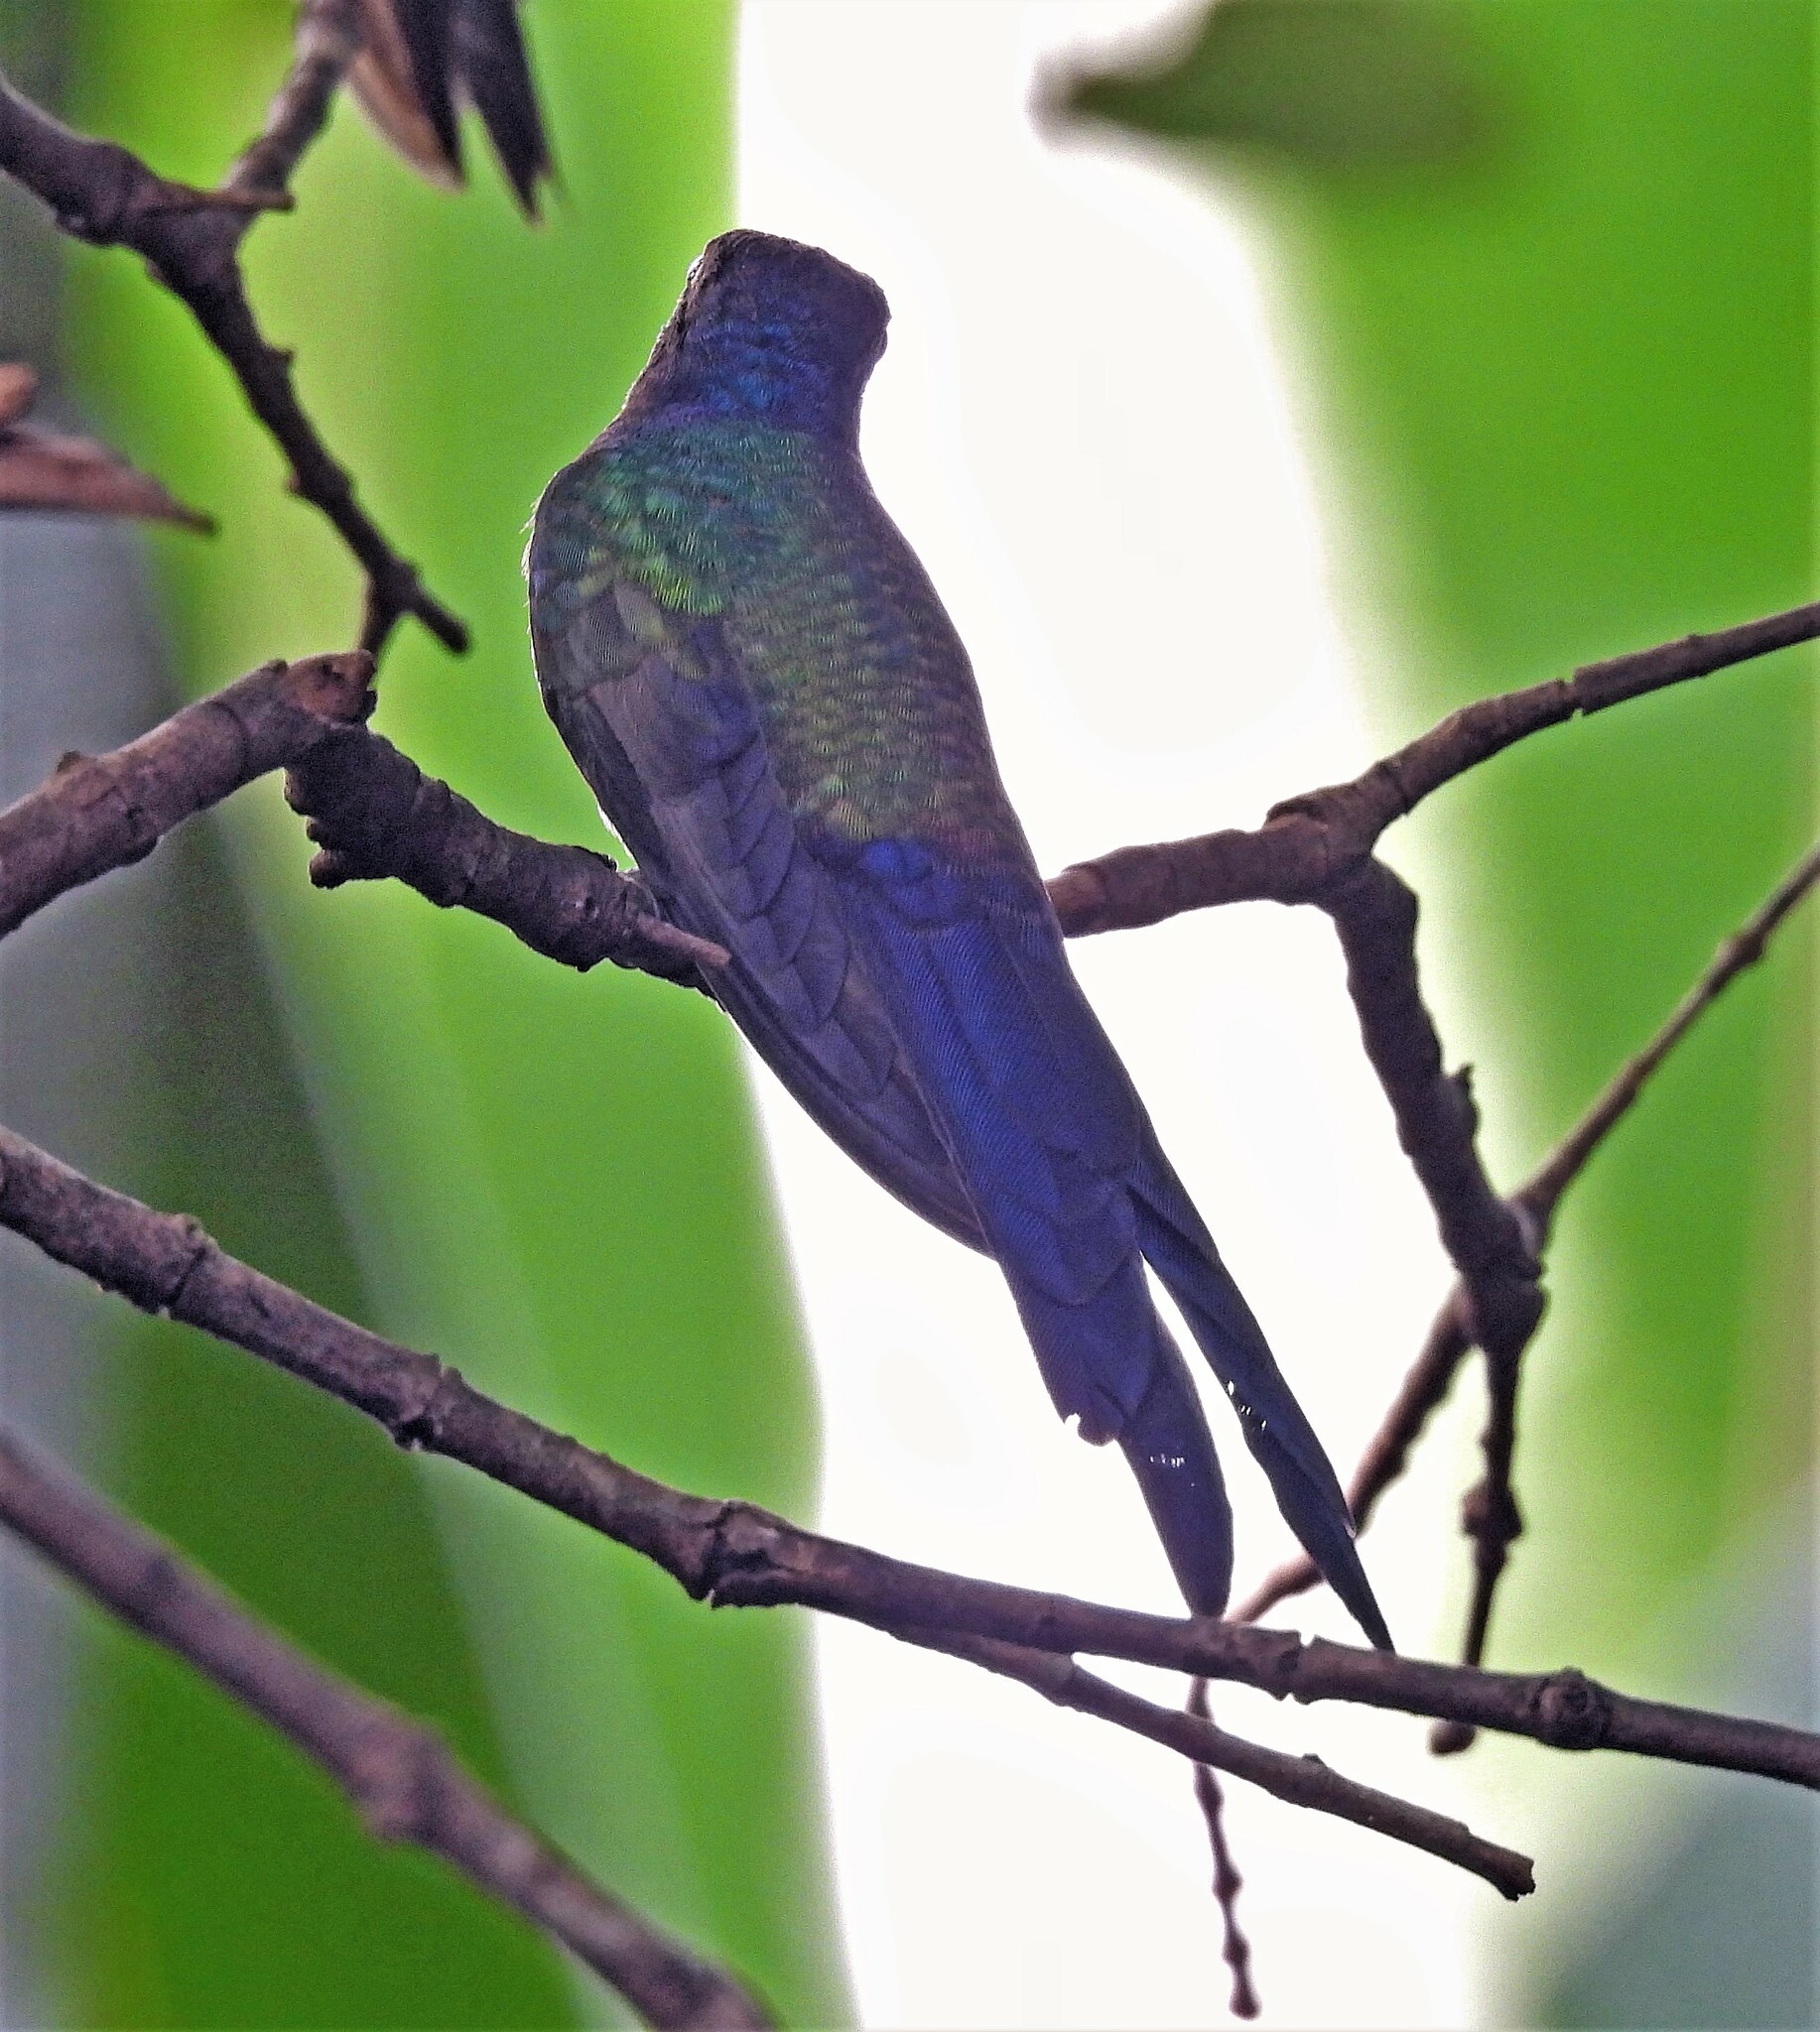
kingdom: Animalia
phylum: Chordata
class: Aves
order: Apodiformes
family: Trochilidae
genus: Eupetomena
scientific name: Eupetomena macroura
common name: Swallow-tailed hummingbird
